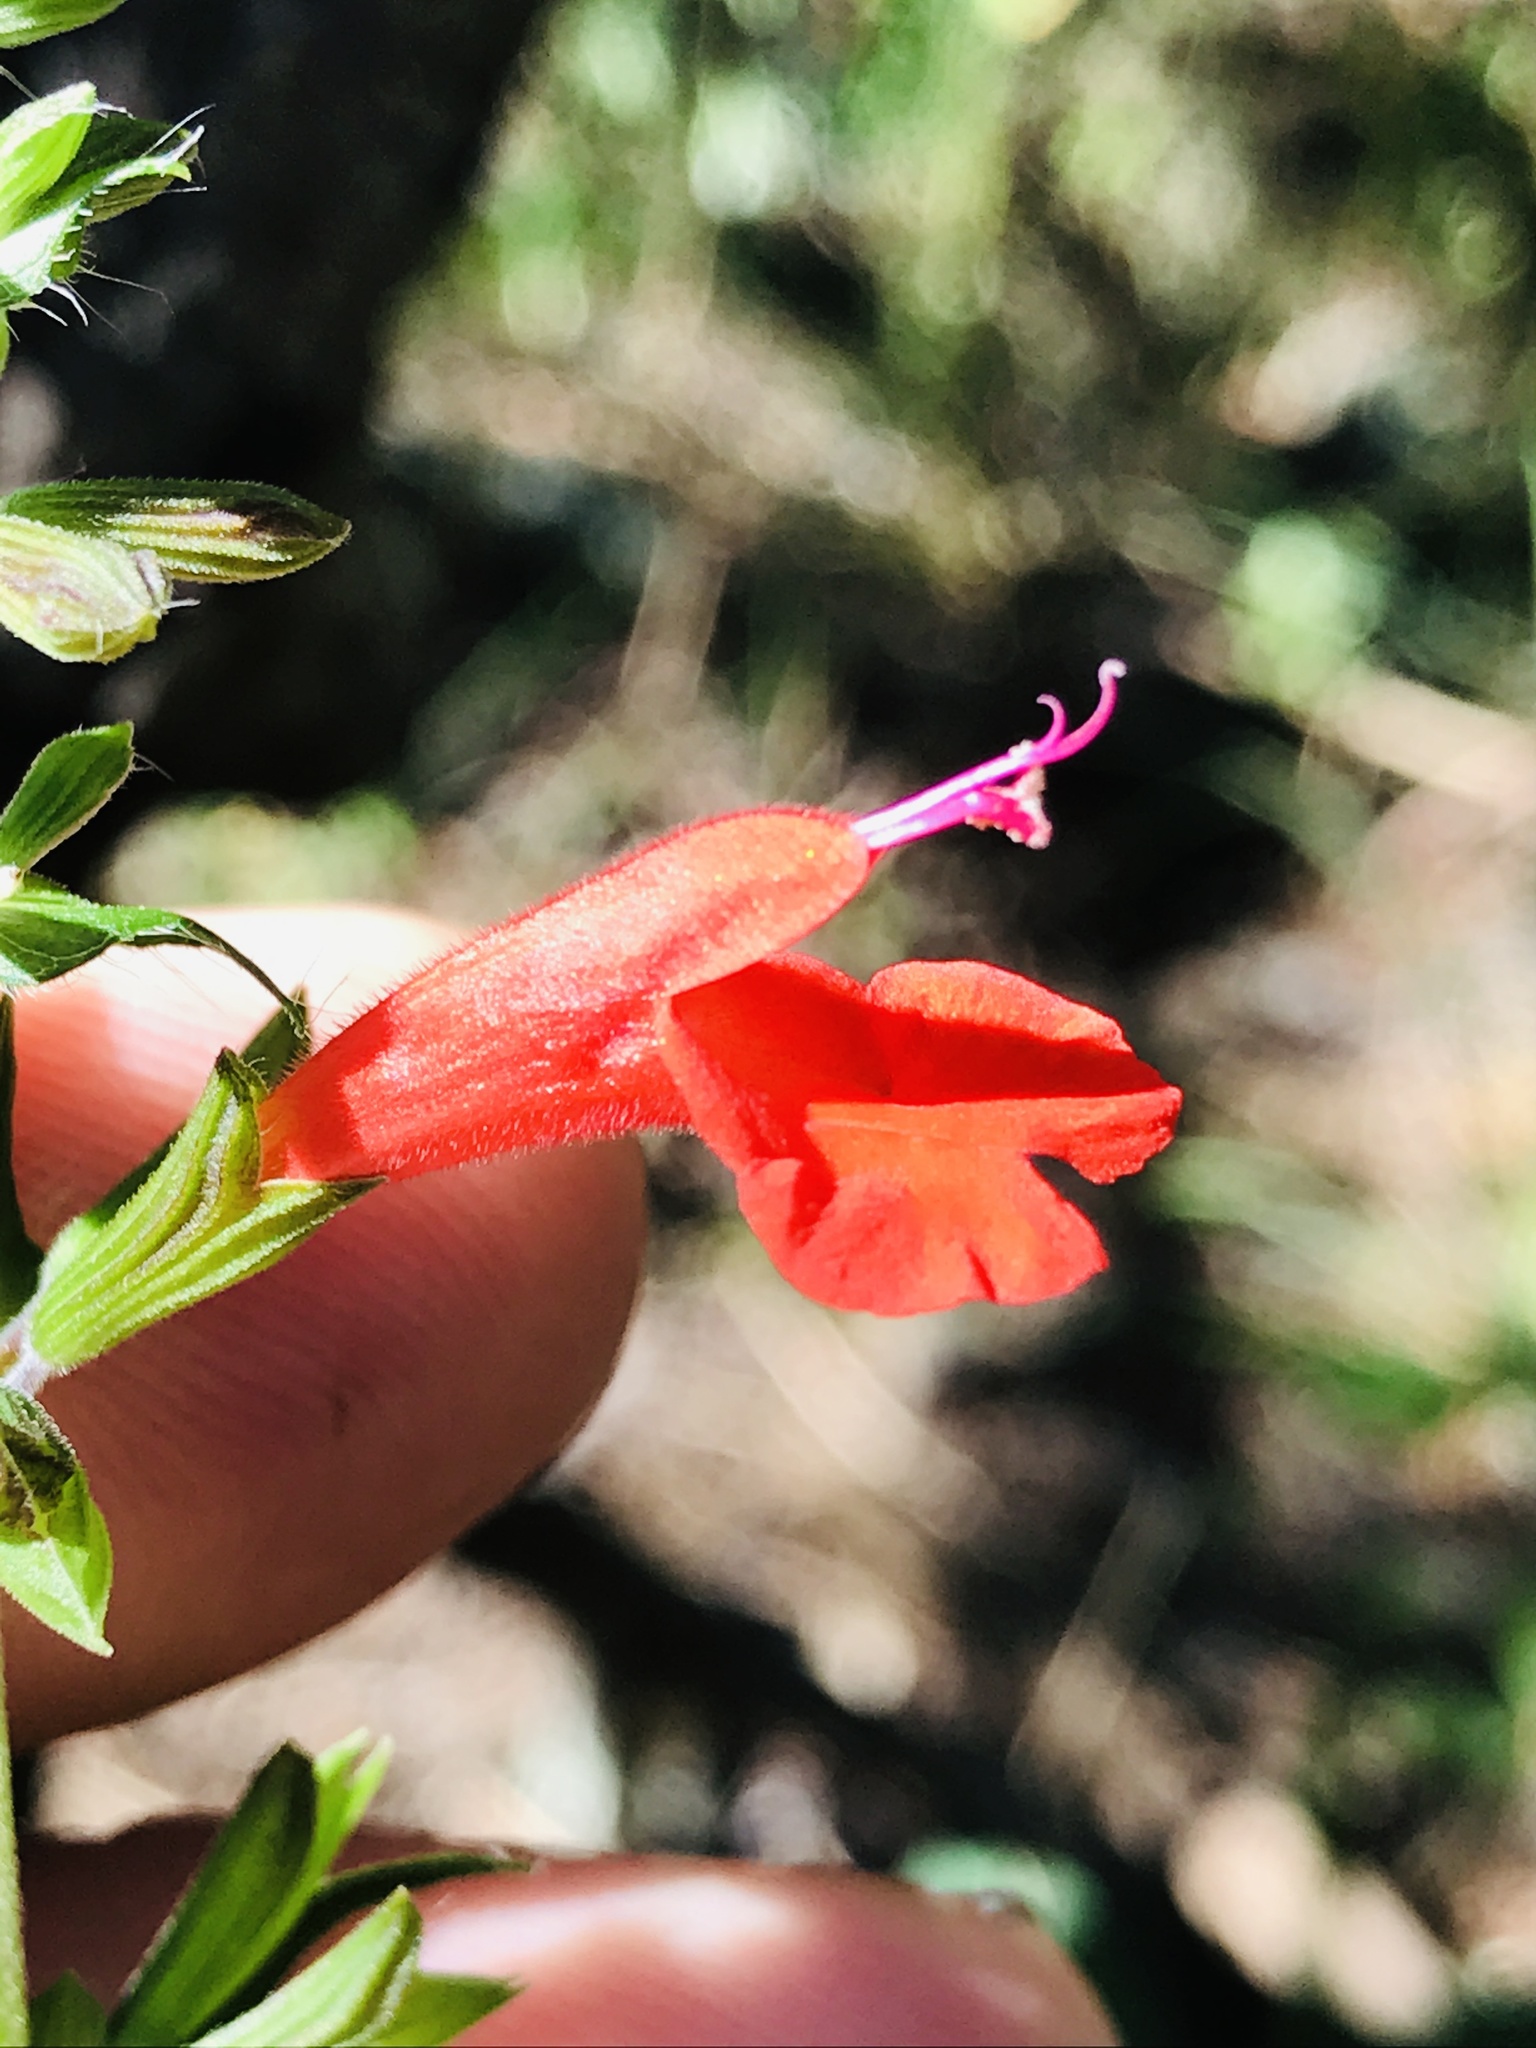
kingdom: Plantae
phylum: Tracheophyta
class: Magnoliopsida
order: Lamiales
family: Lamiaceae
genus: Salvia
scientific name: Salvia coccinea
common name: Blood sage
